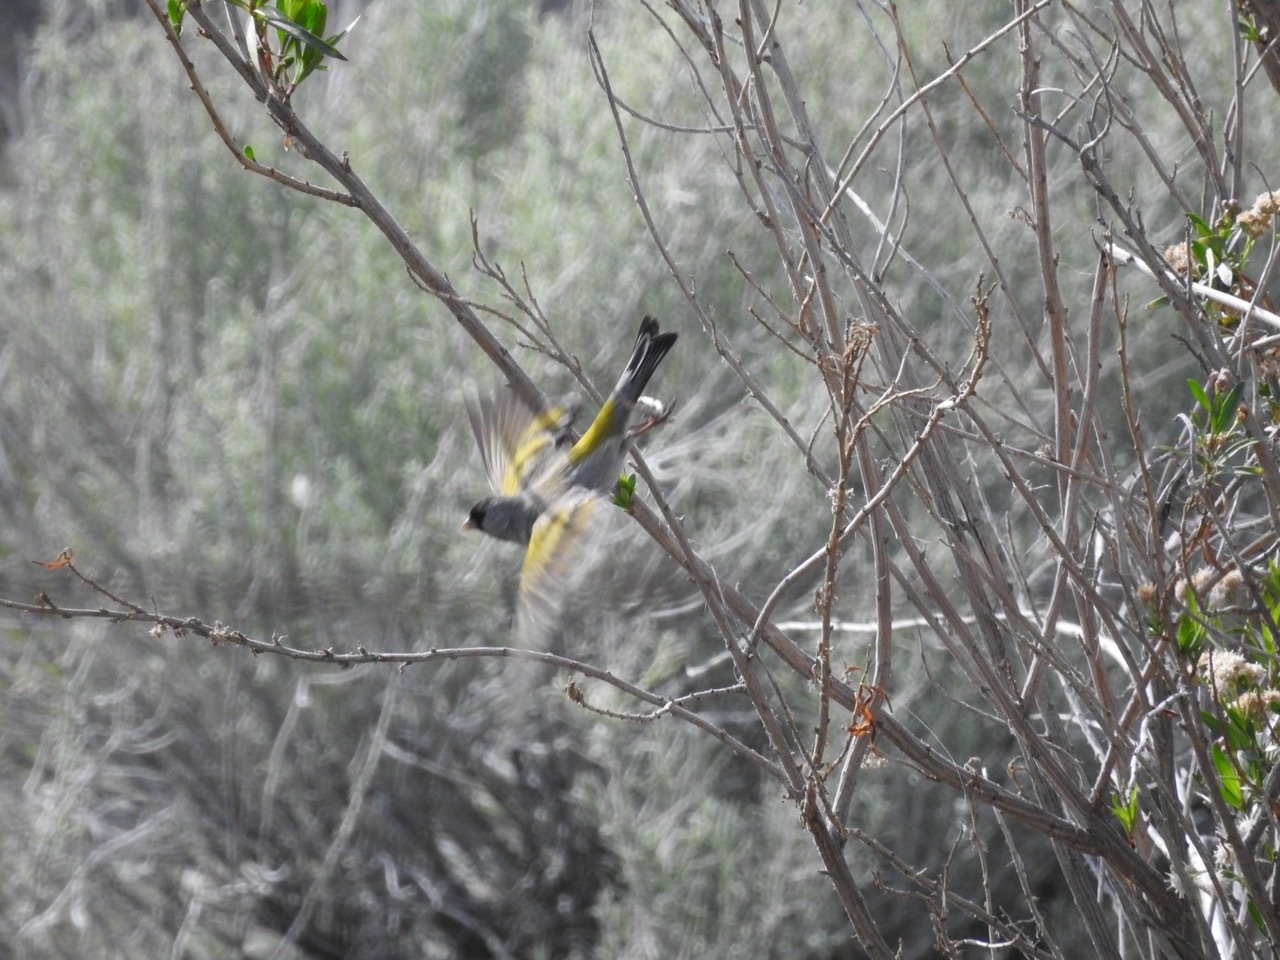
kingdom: Animalia
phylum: Chordata
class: Aves
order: Passeriformes
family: Fringillidae
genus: Spinus
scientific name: Spinus lawrencei
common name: Lawrence's goldfinch
